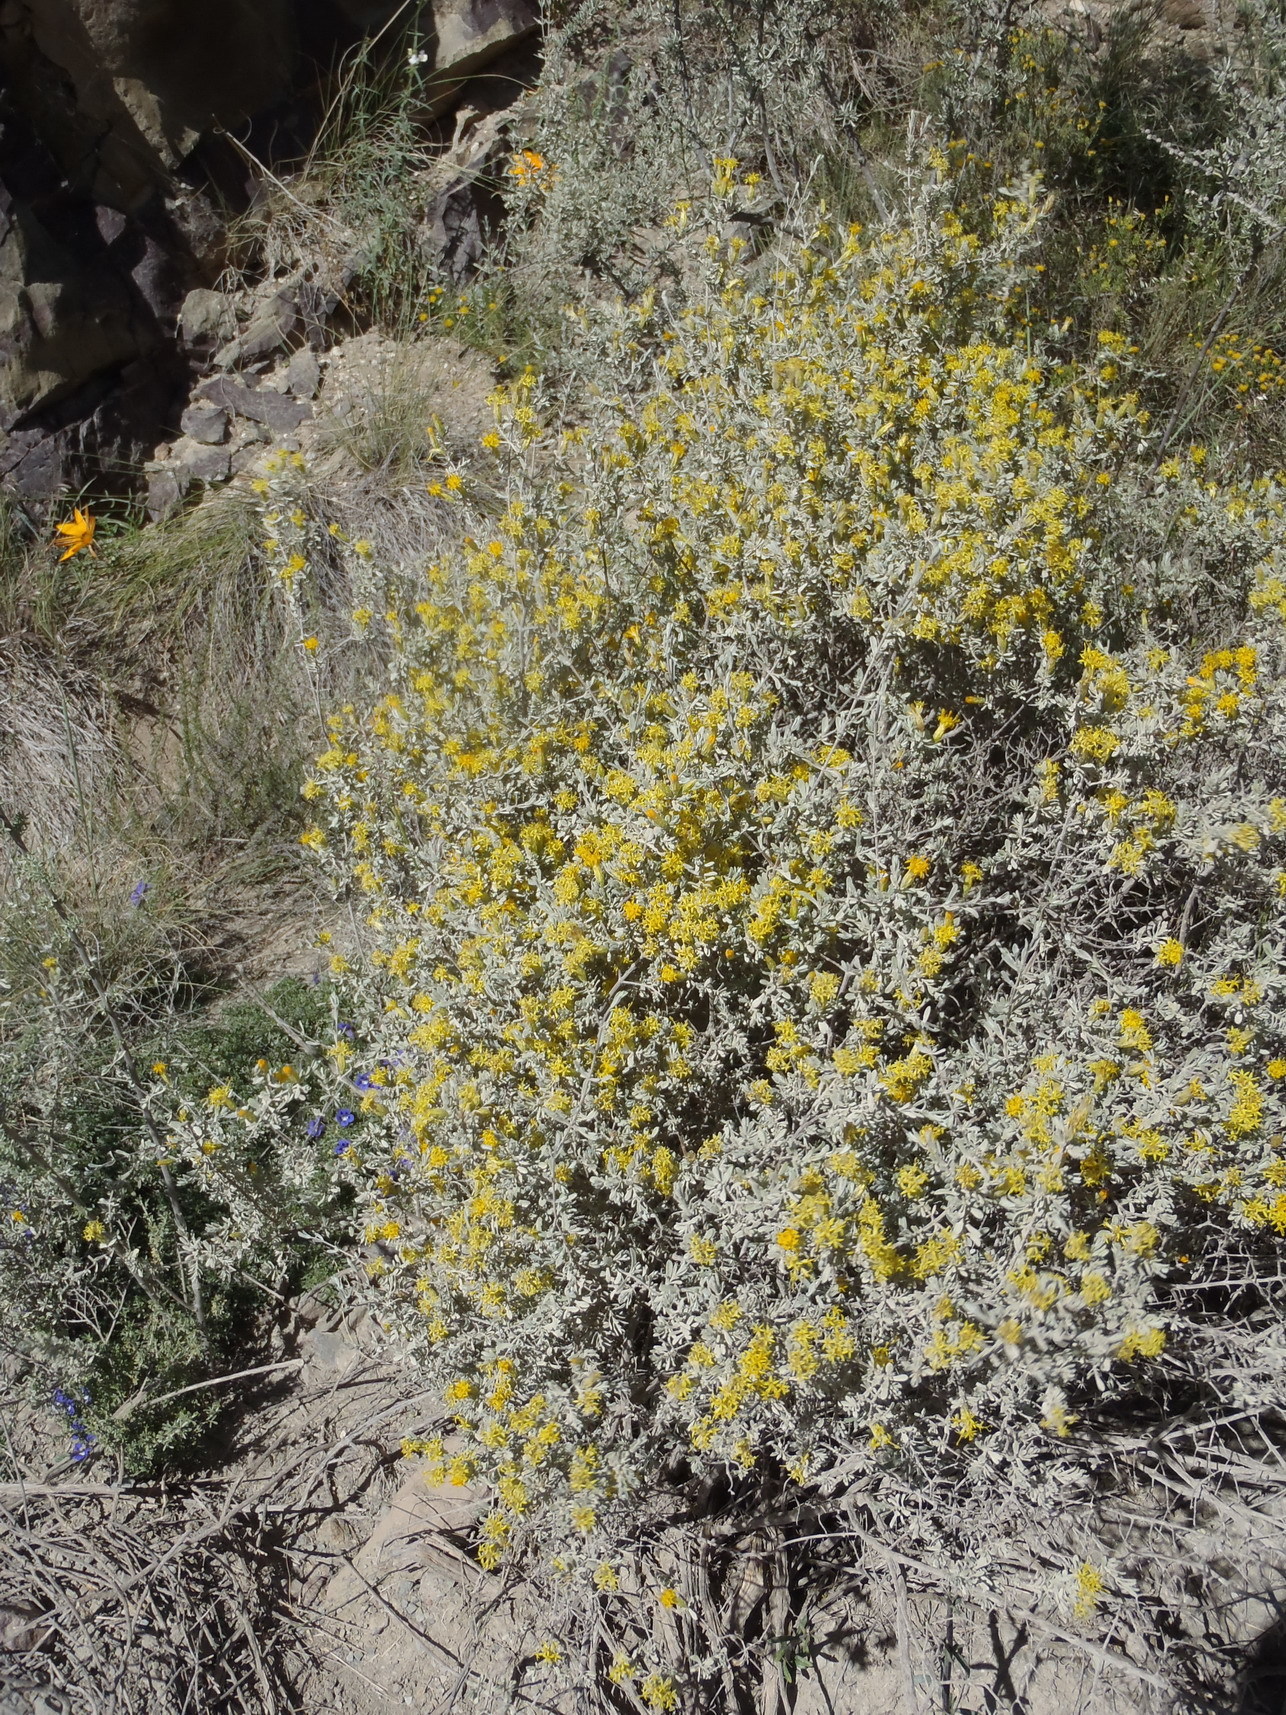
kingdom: Plantae
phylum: Tracheophyta
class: Magnoliopsida
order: Asterales
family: Asteraceae
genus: Pteronia
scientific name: Pteronia incana
